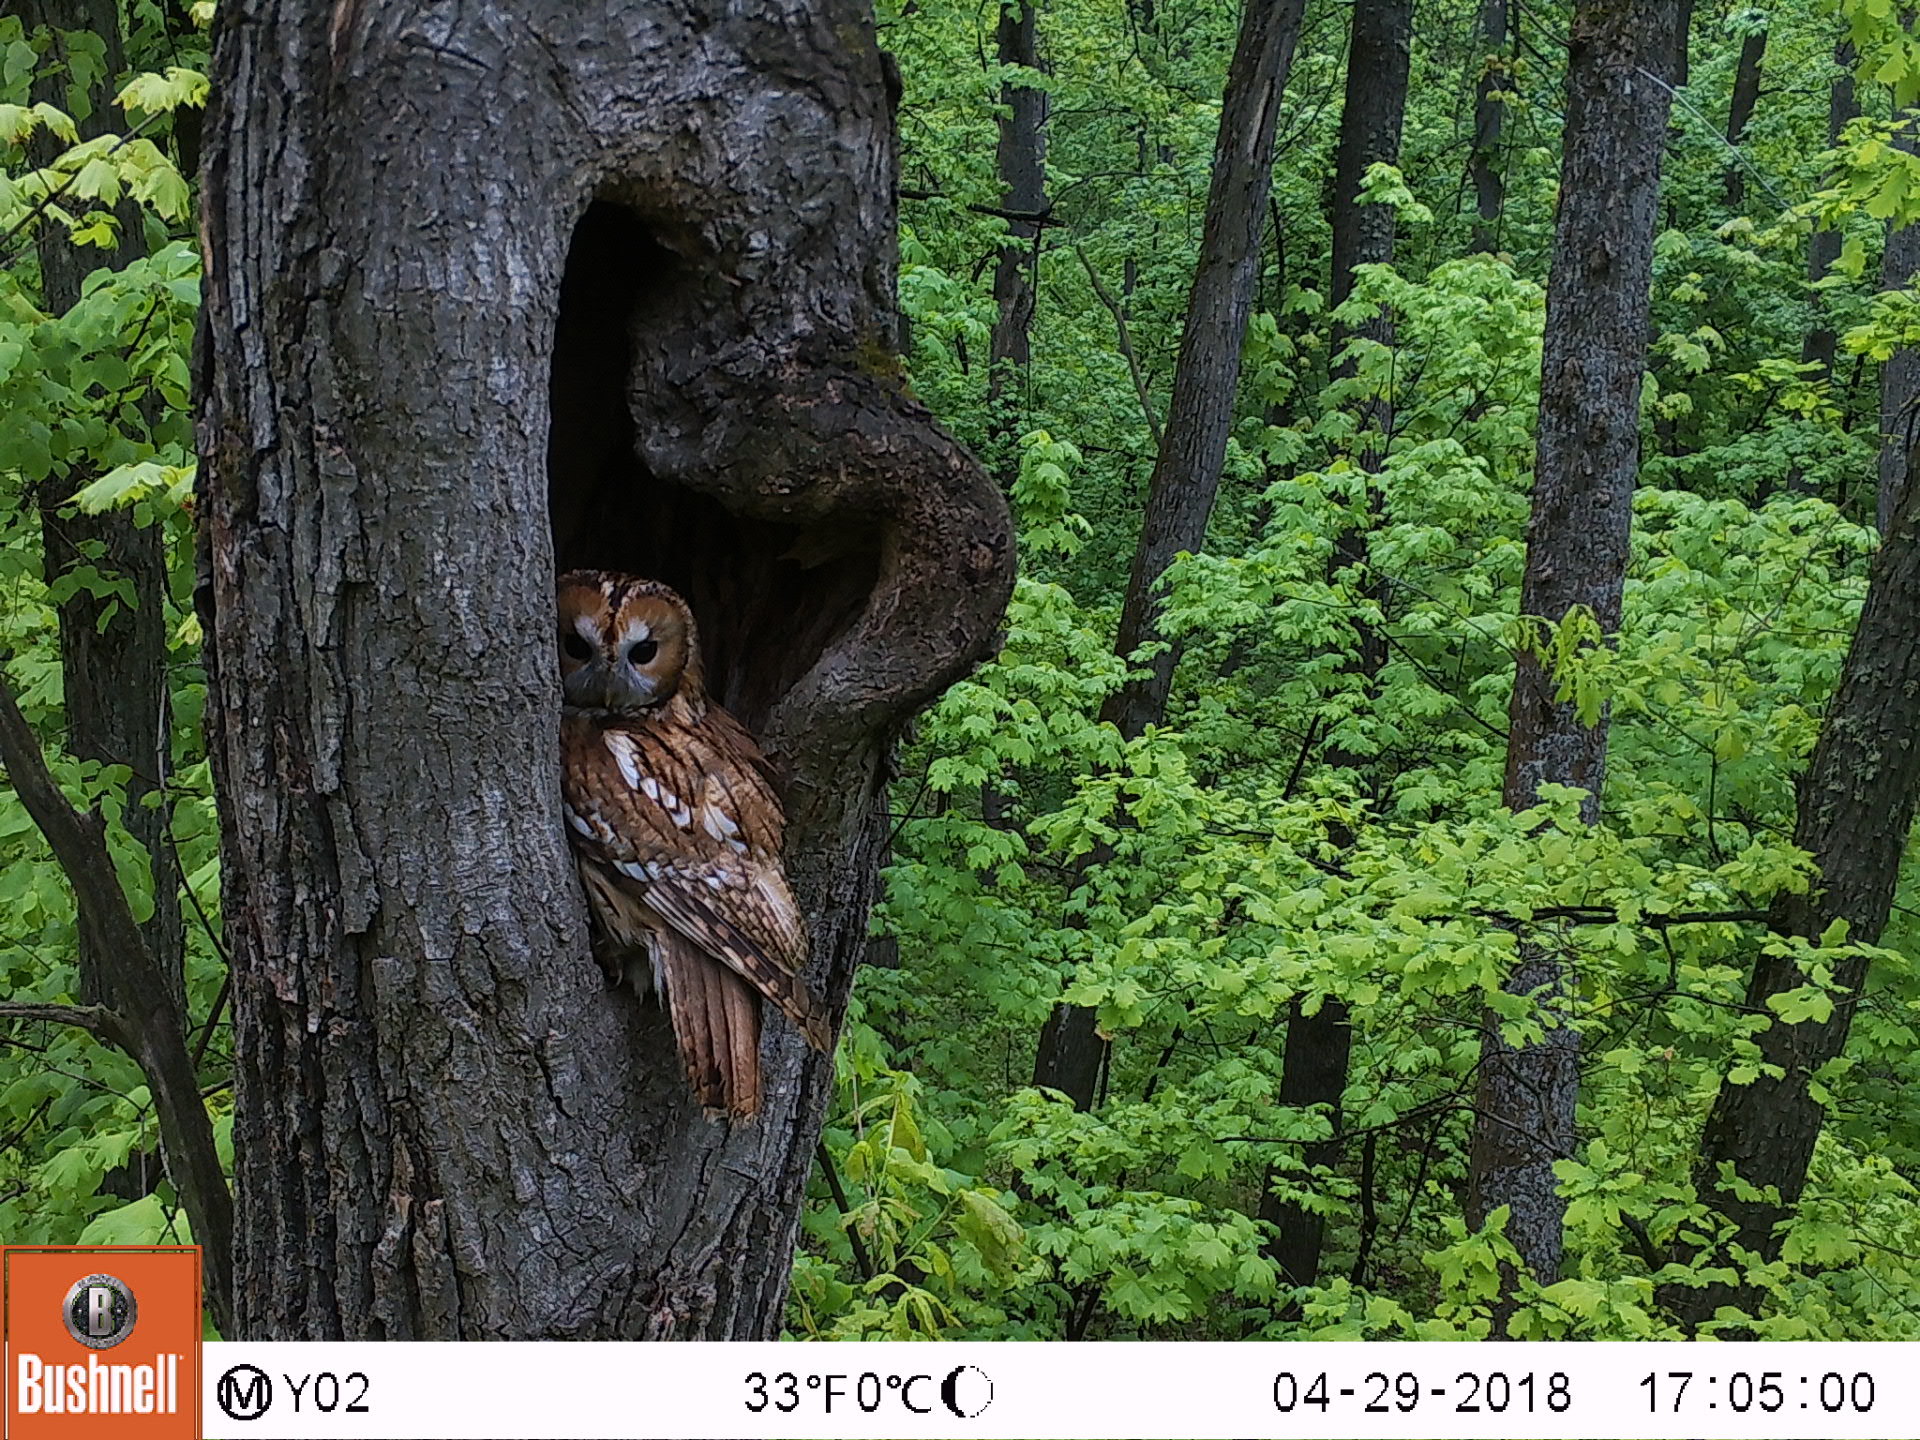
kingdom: Animalia
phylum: Chordata
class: Aves
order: Strigiformes
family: Strigidae
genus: Strix
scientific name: Strix aluco
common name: Tawny owl
